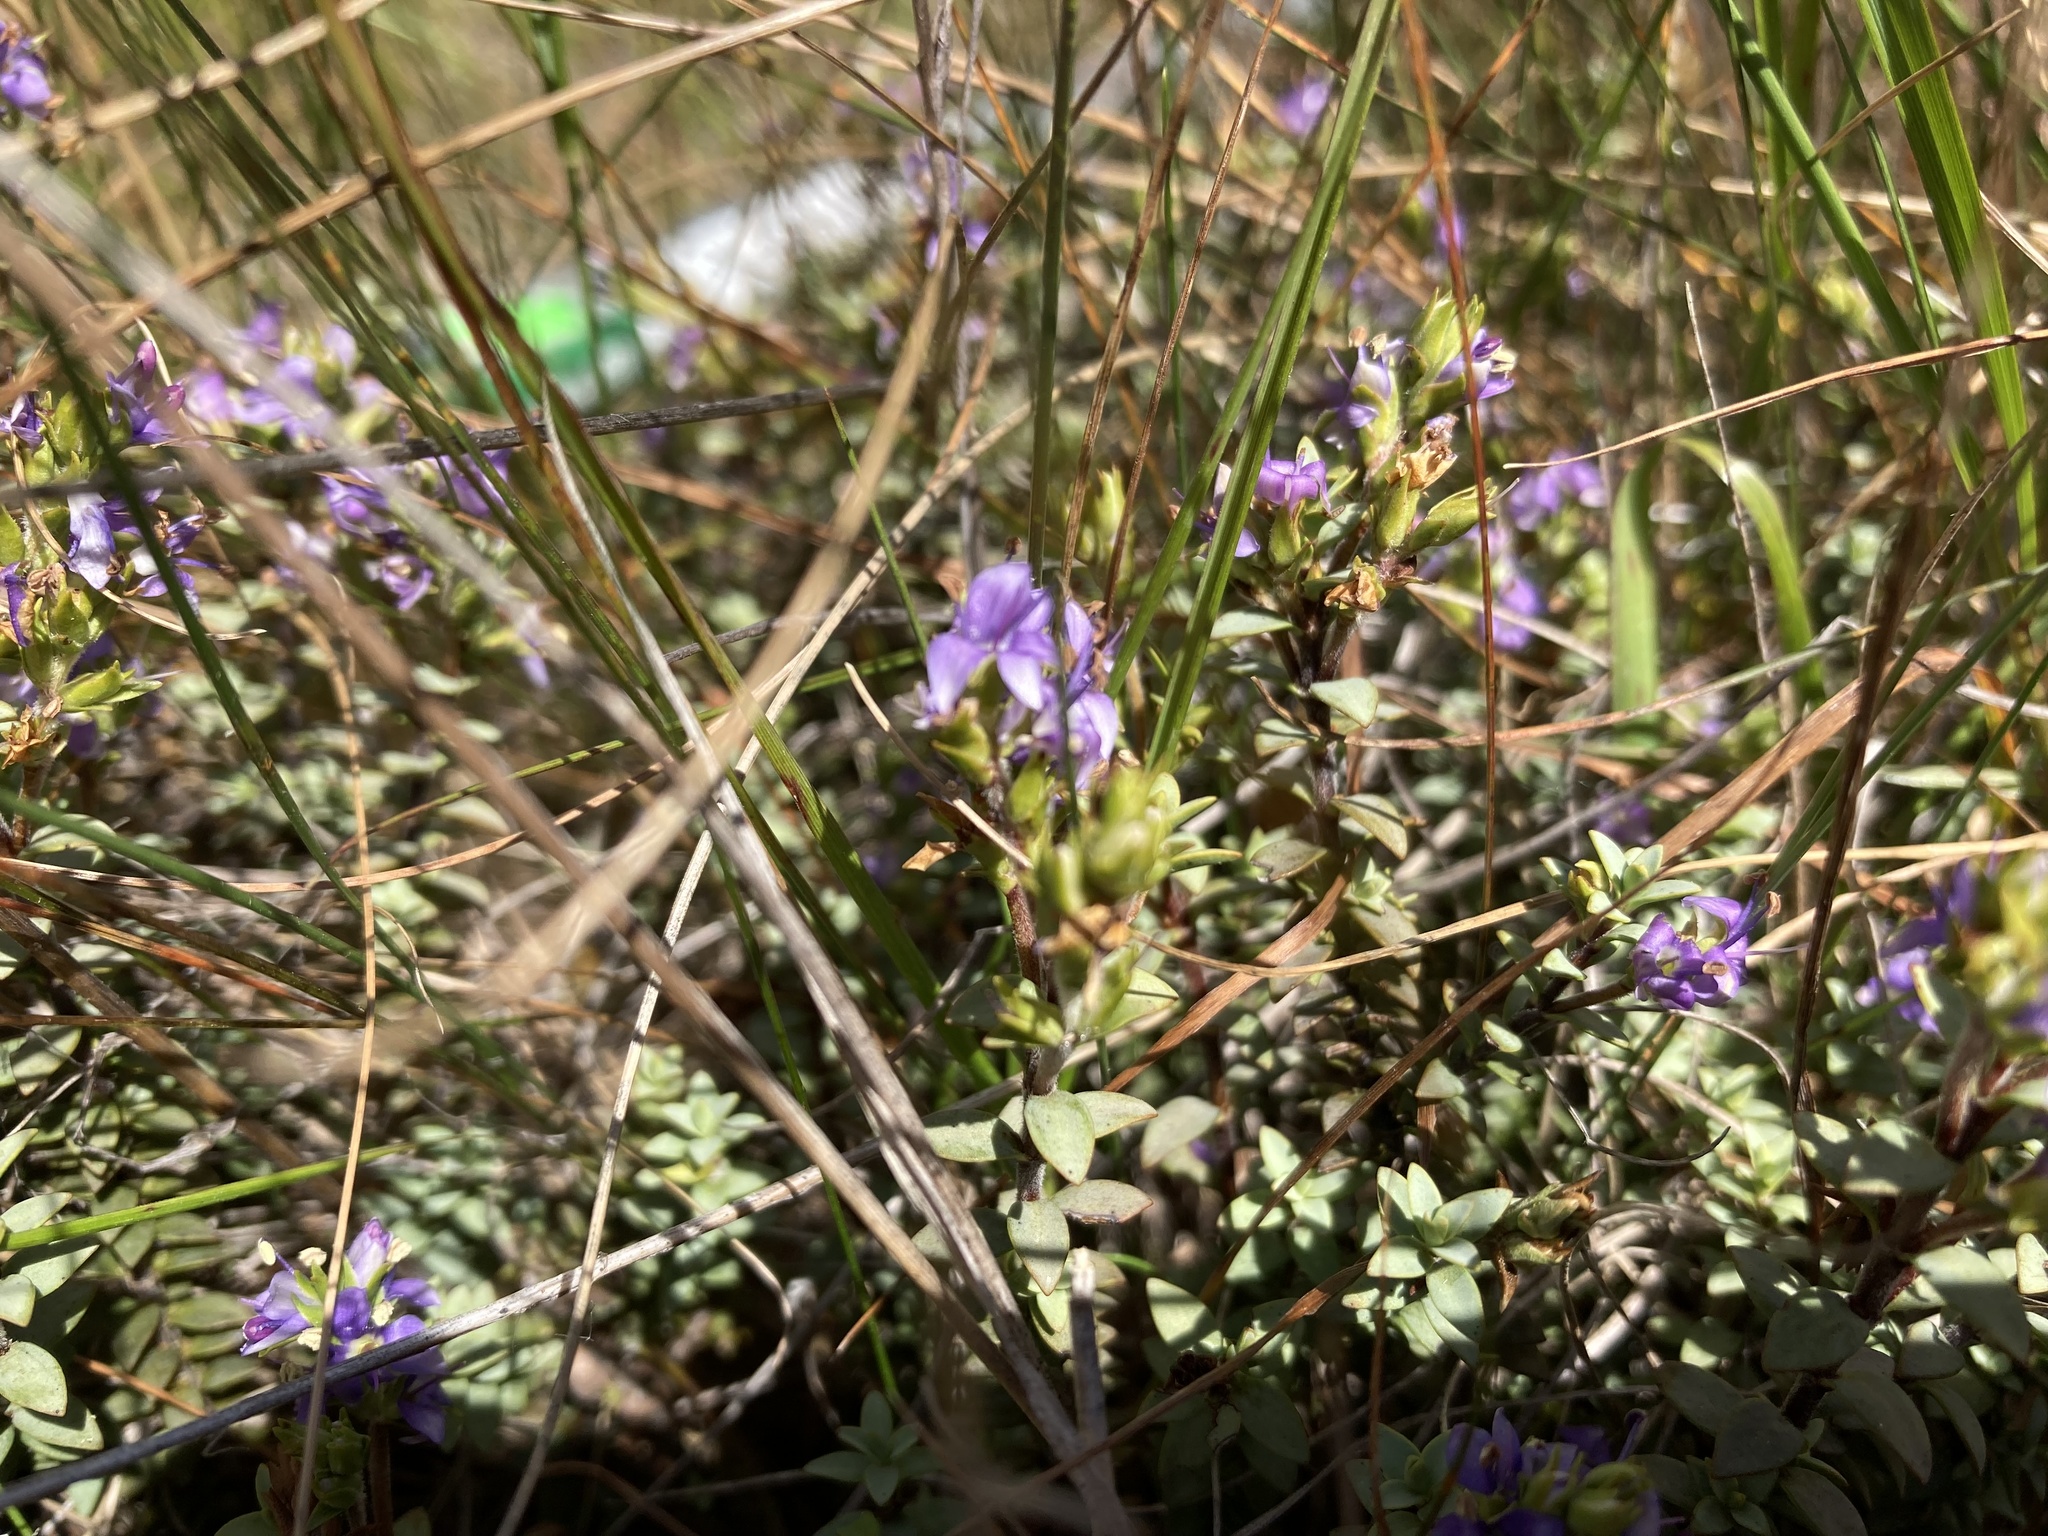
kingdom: Plantae
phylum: Tracheophyta
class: Magnoliopsida
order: Lamiales
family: Plantaginaceae
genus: Veronica
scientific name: Veronica pimeleoides
